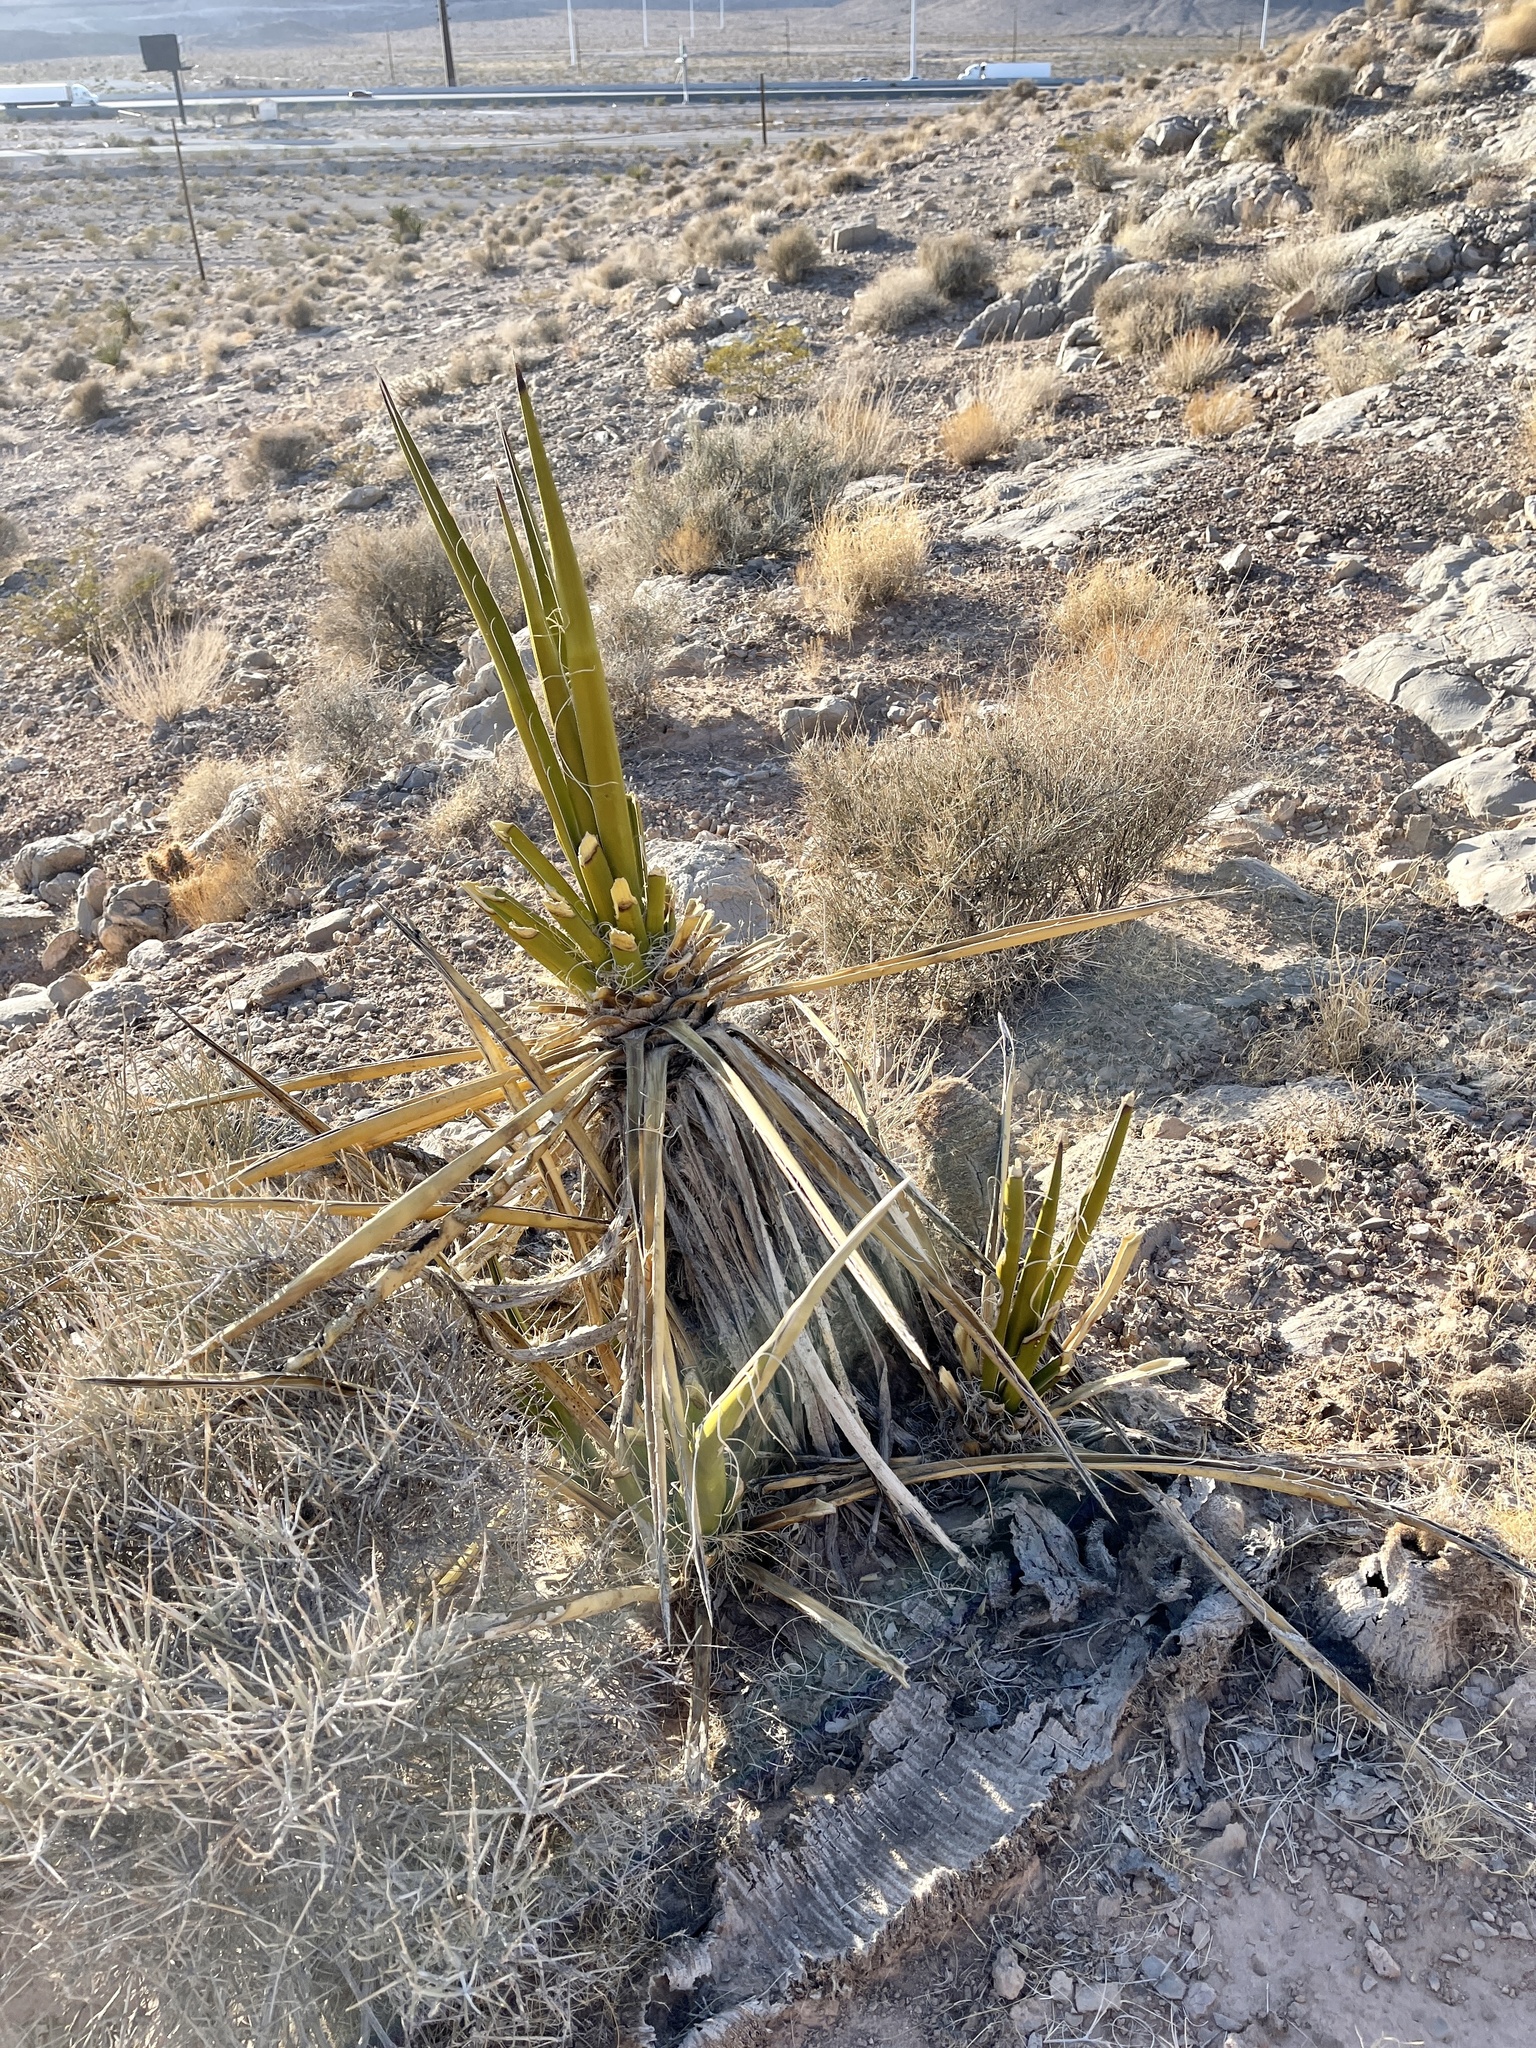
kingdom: Plantae
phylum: Tracheophyta
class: Liliopsida
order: Asparagales
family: Asparagaceae
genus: Yucca
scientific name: Yucca schidigera
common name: Mojave yucca
